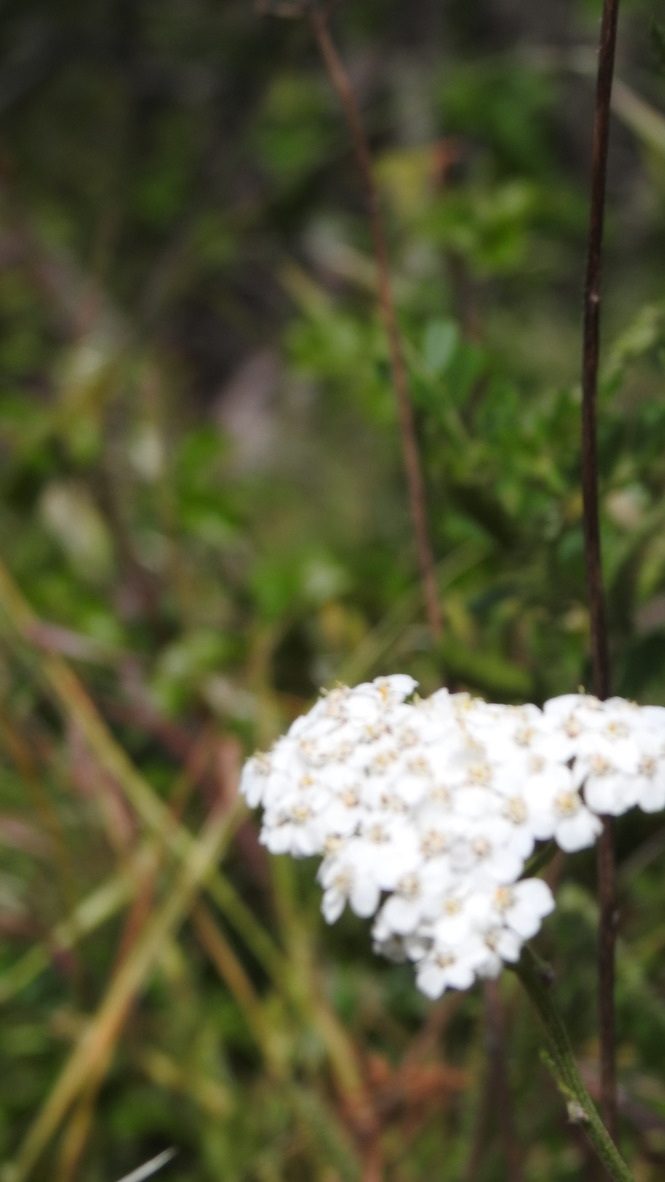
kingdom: Plantae
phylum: Tracheophyta
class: Magnoliopsida
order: Asterales
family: Asteraceae
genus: Achillea
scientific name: Achillea millefolium
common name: Yarrow
